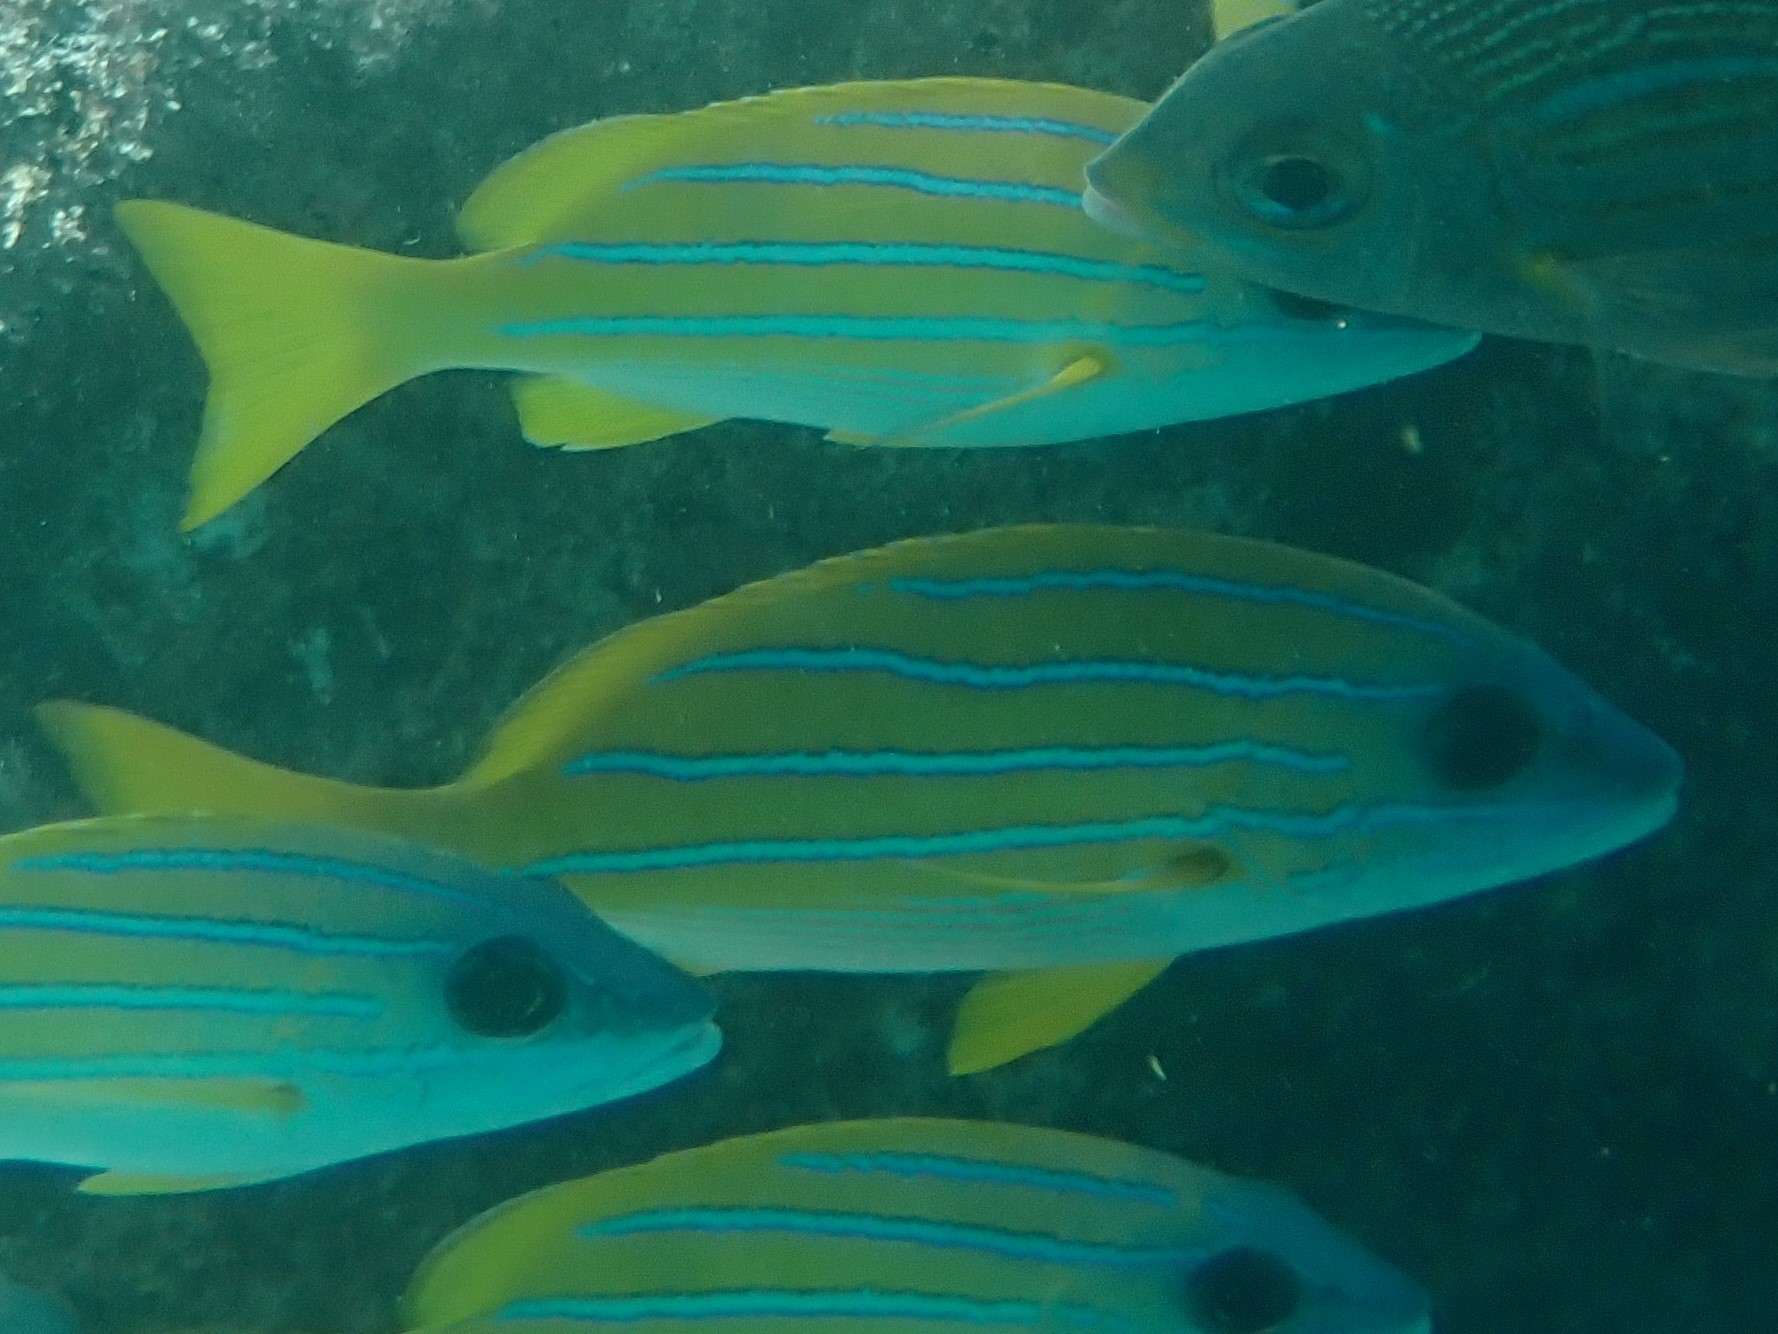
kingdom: Animalia
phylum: Chordata
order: Perciformes
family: Lutjanidae
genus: Lutjanus
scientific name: Lutjanus kasmira
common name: Common bluestripe snapper
